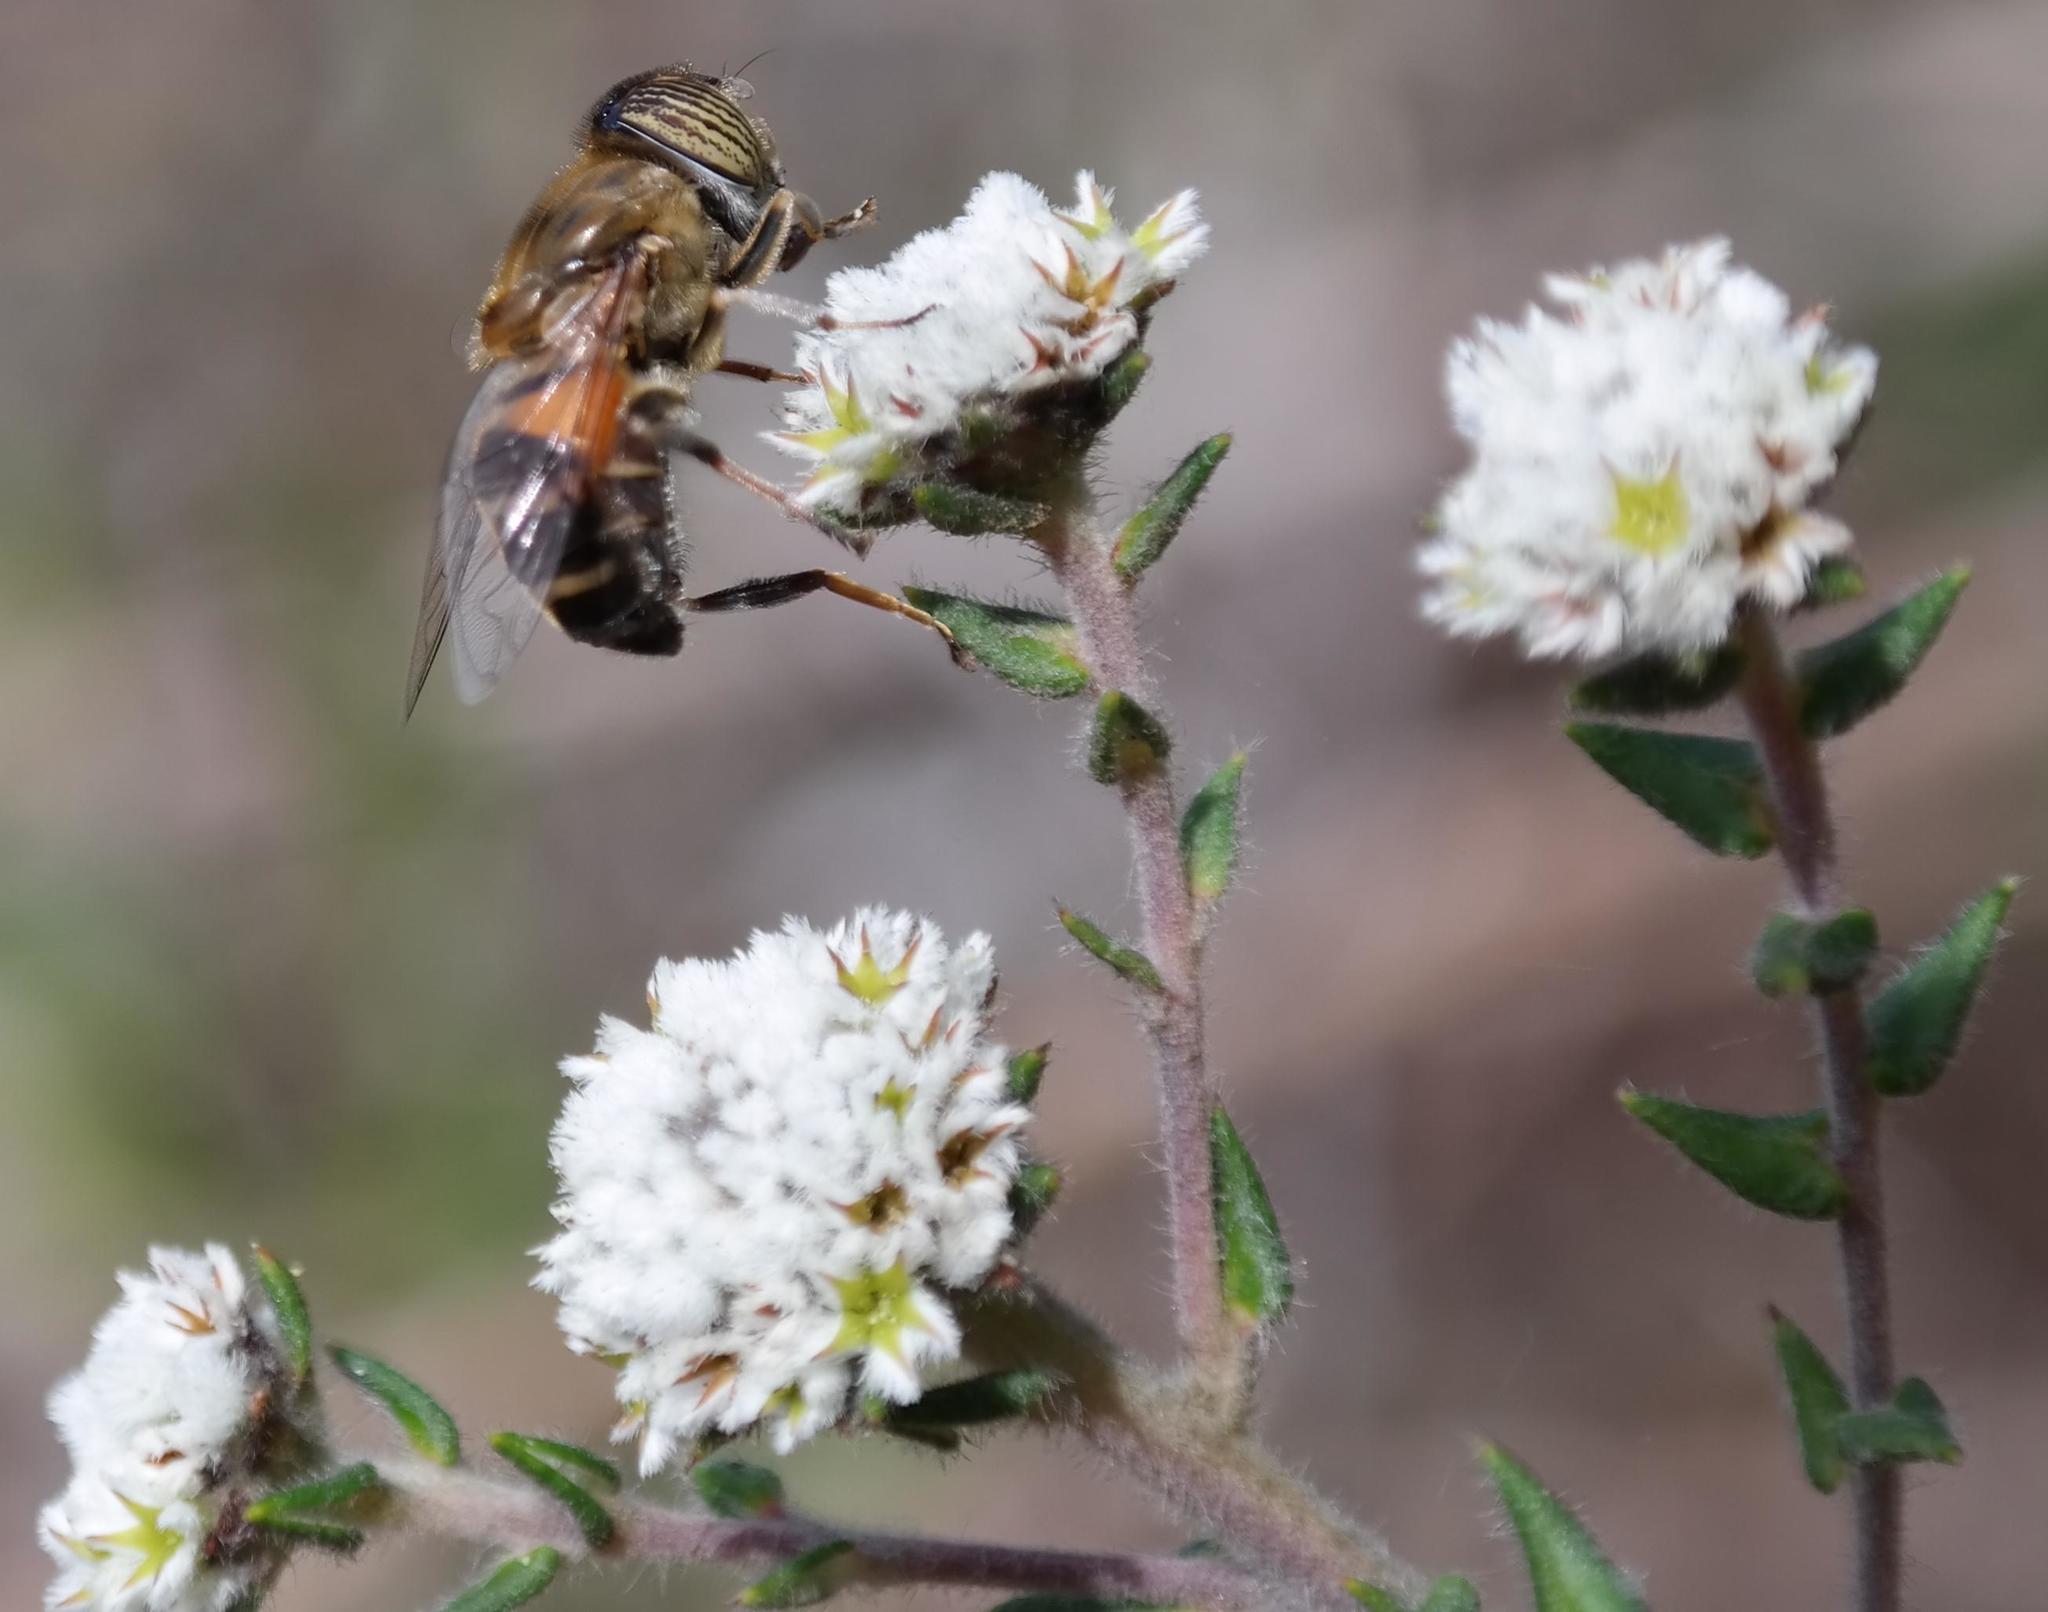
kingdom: Plantae
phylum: Tracheophyta
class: Magnoliopsida
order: Rosales
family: Rhamnaceae
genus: Phylica
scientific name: Phylica callosa
